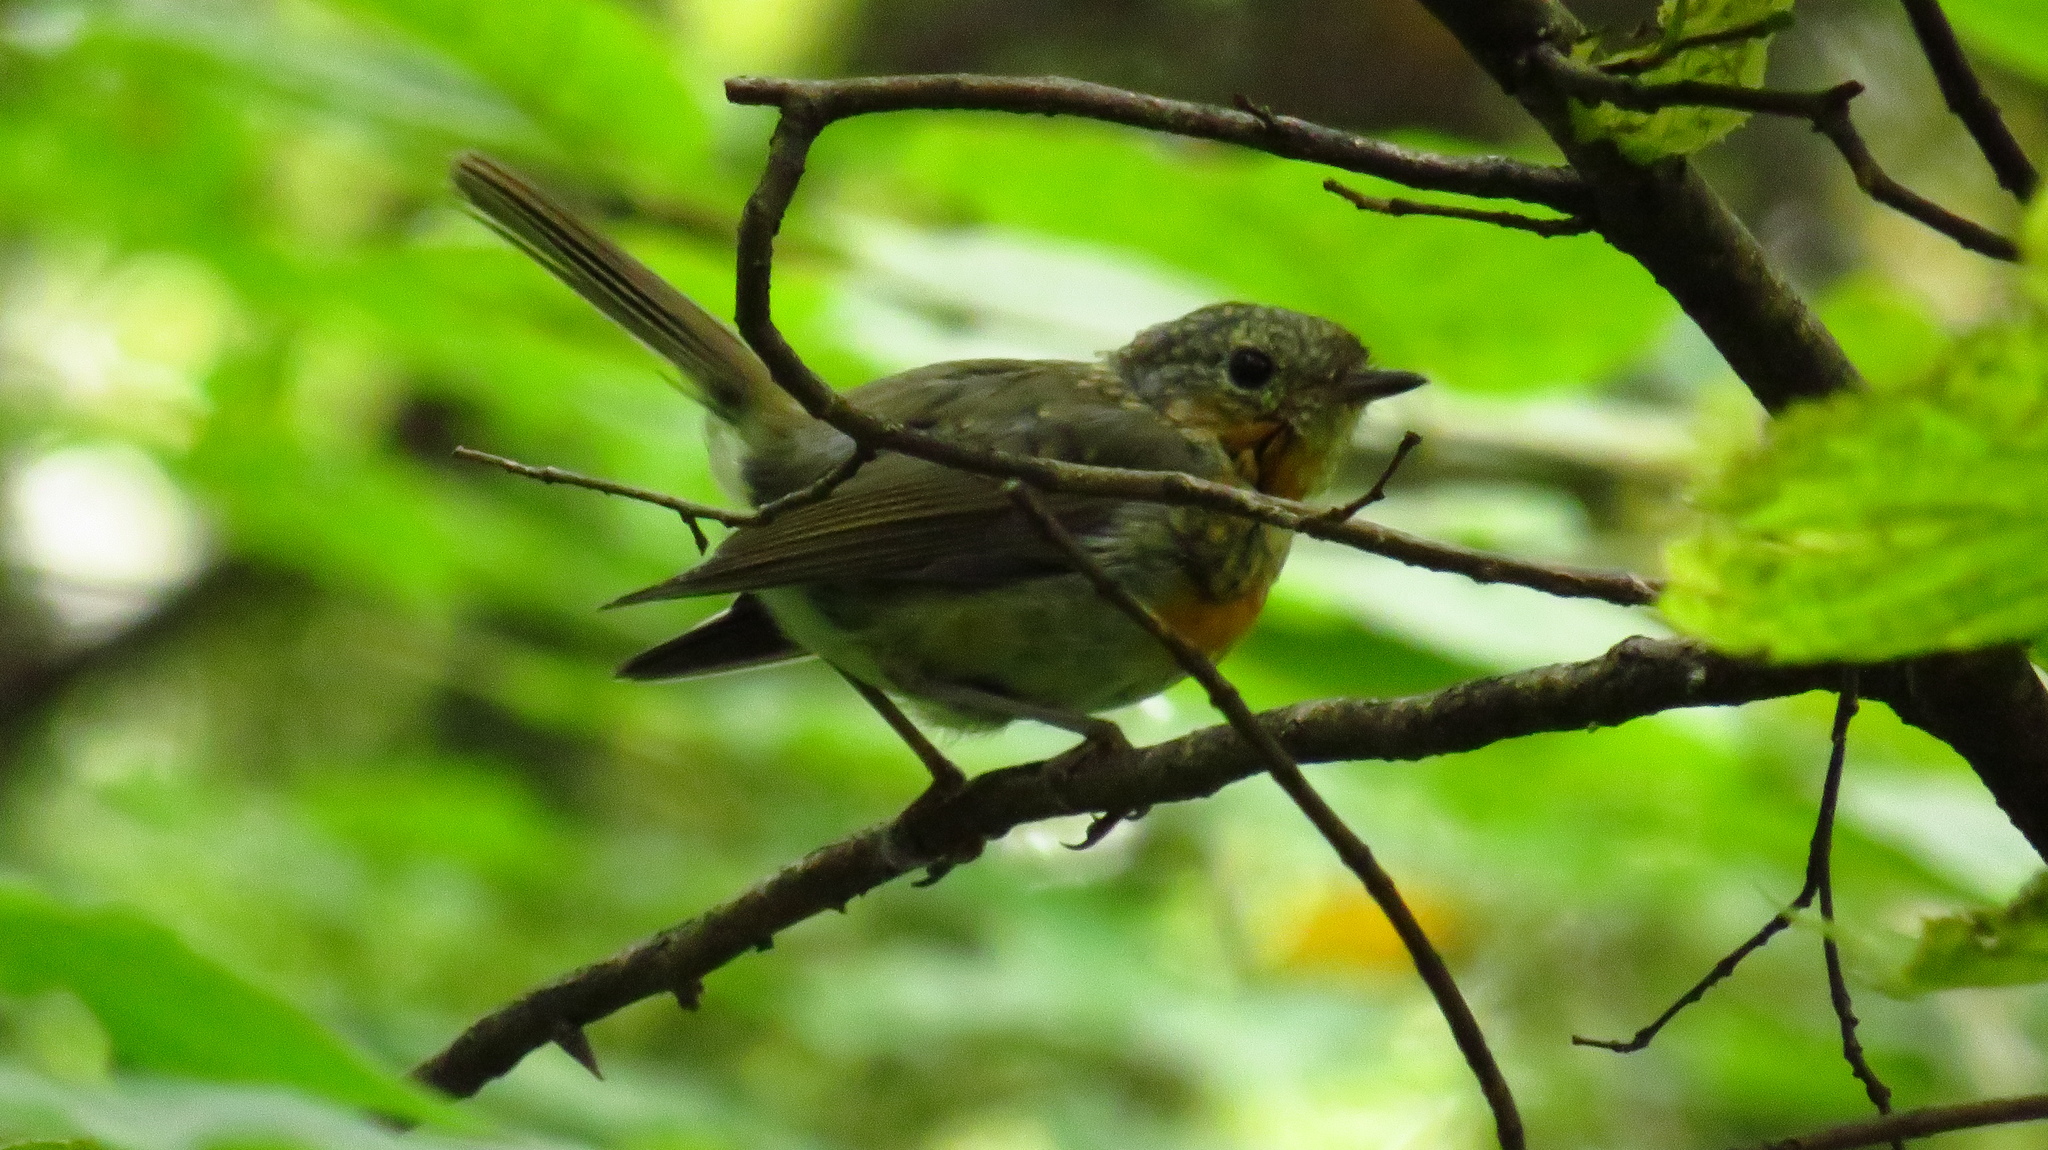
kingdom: Animalia
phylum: Chordata
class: Aves
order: Passeriformes
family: Muscicapidae
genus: Erithacus
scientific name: Erithacus rubecula
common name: European robin
